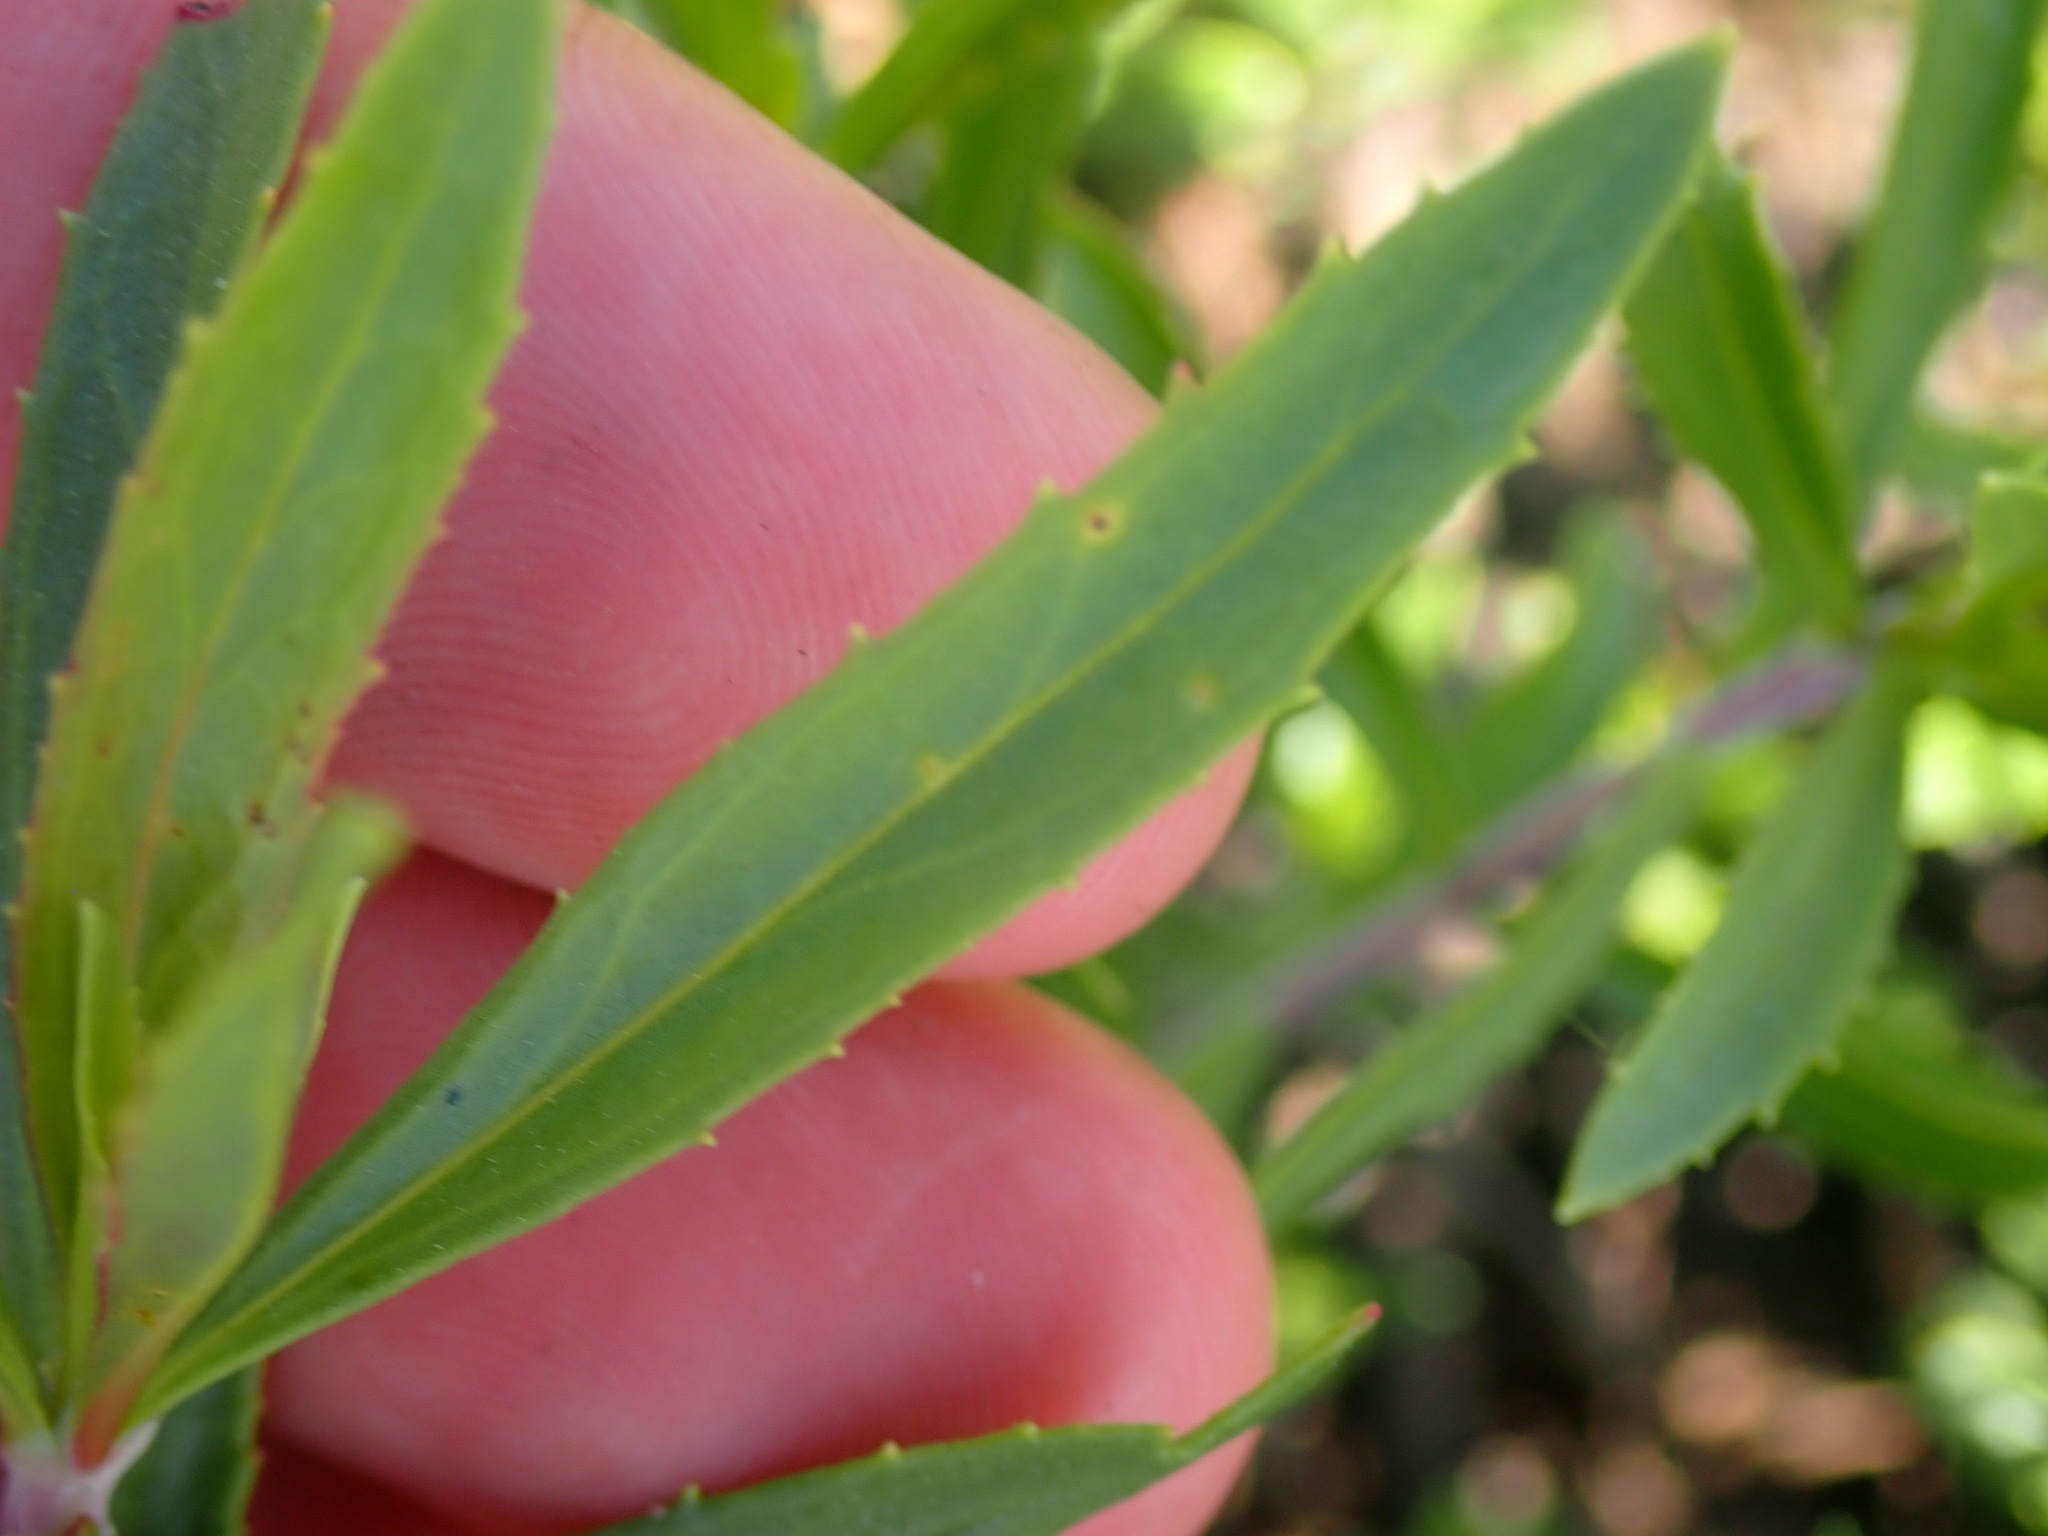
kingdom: Plantae
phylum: Tracheophyta
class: Magnoliopsida
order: Lamiales
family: Plantaginaceae
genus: Penstemon
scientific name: Penstemon fruticosus
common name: Bush penstemon
